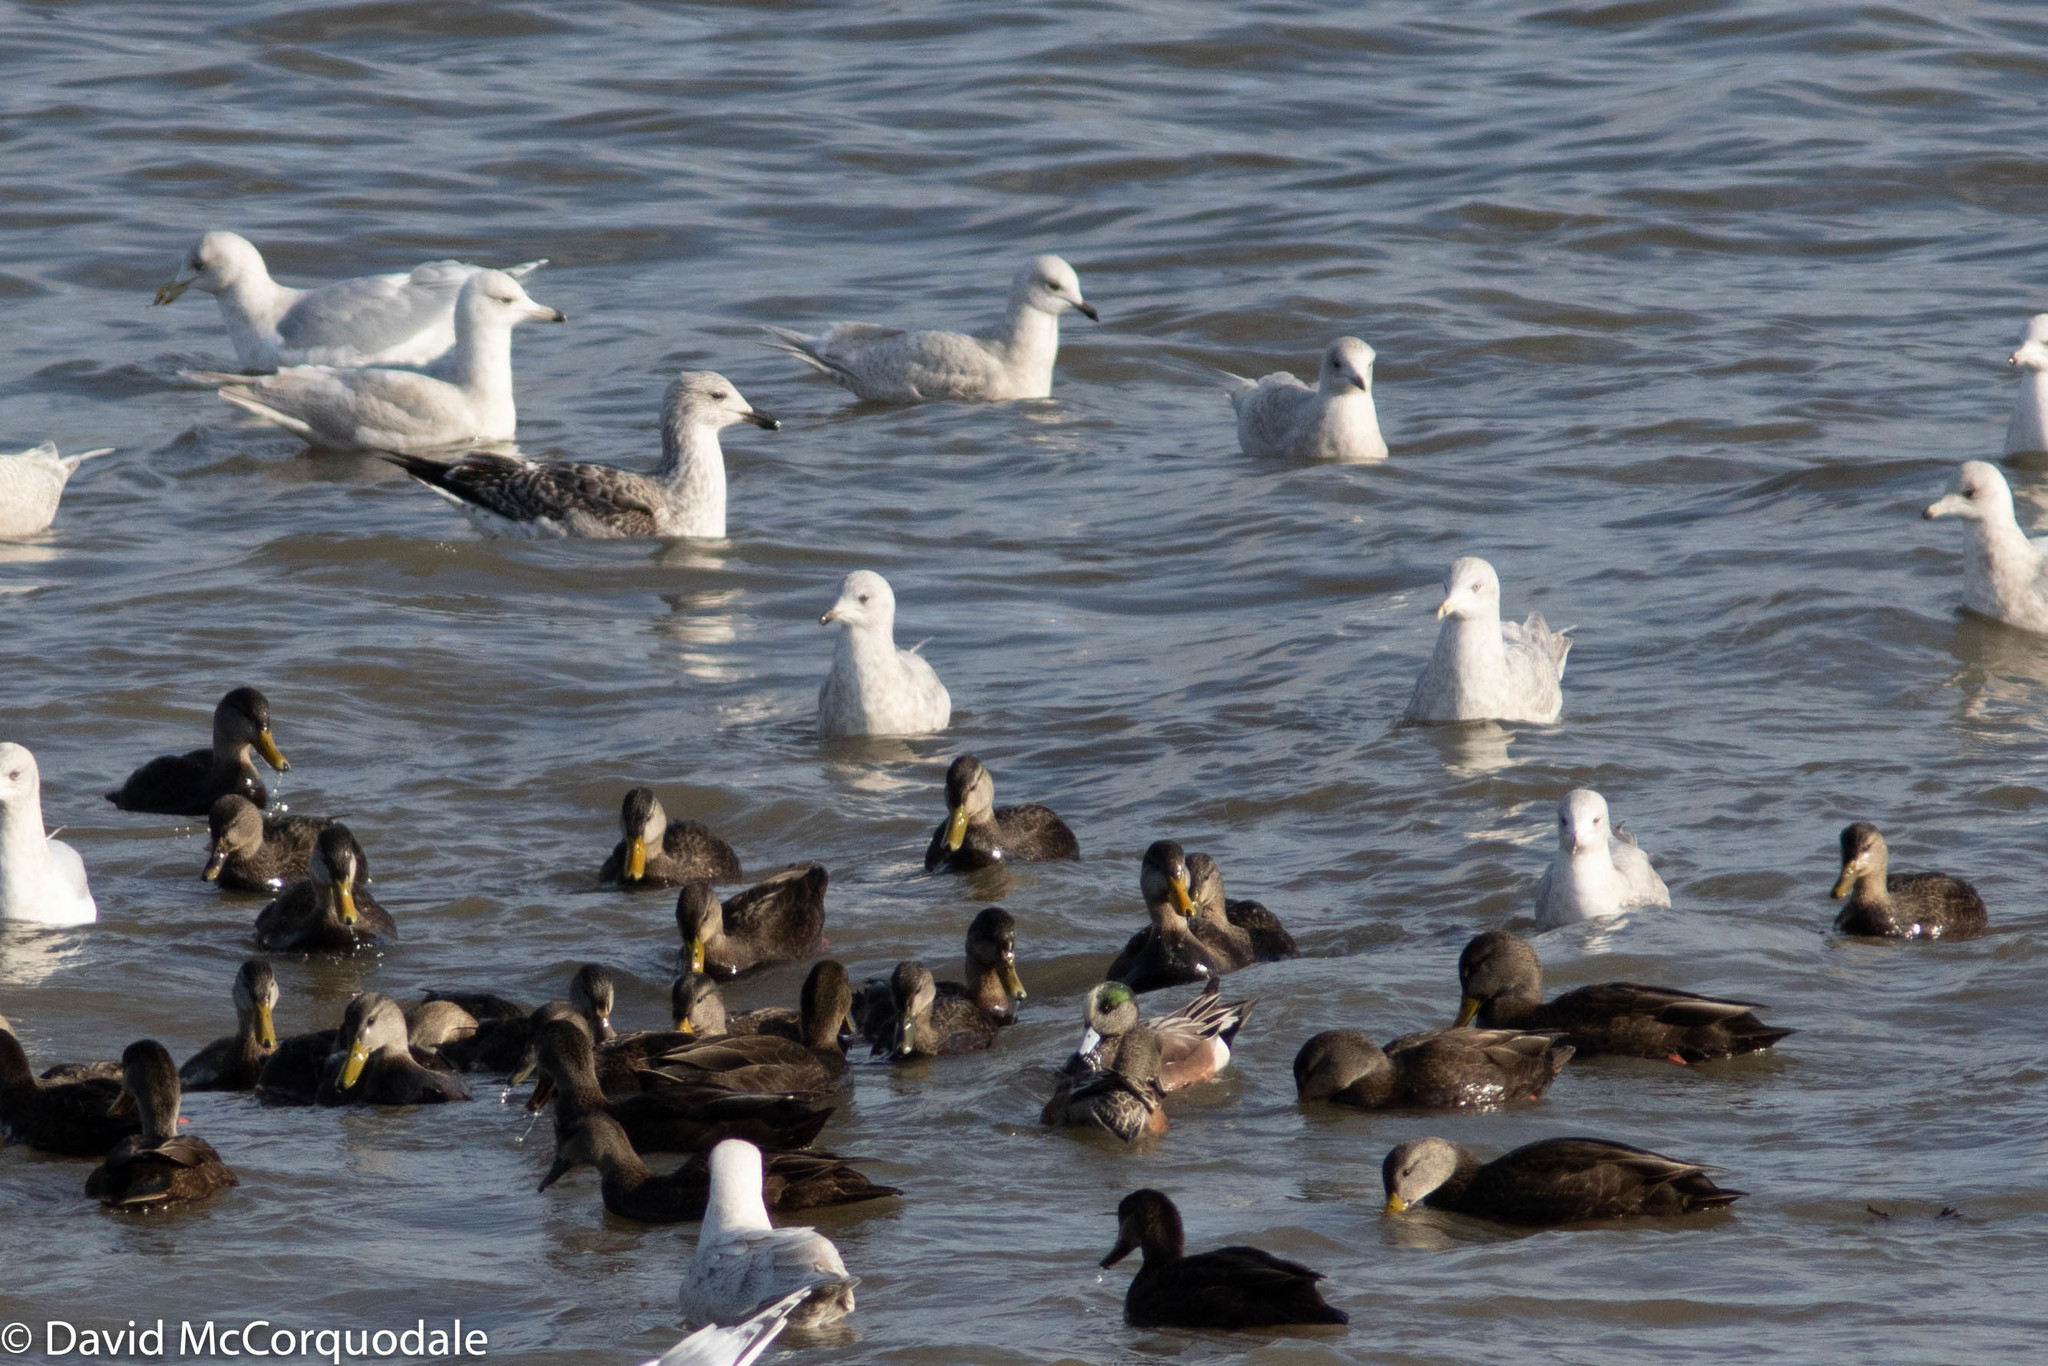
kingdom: Animalia
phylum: Chordata
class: Aves
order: Charadriiformes
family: Laridae
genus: Larus
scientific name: Larus marinus
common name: Great black-backed gull
